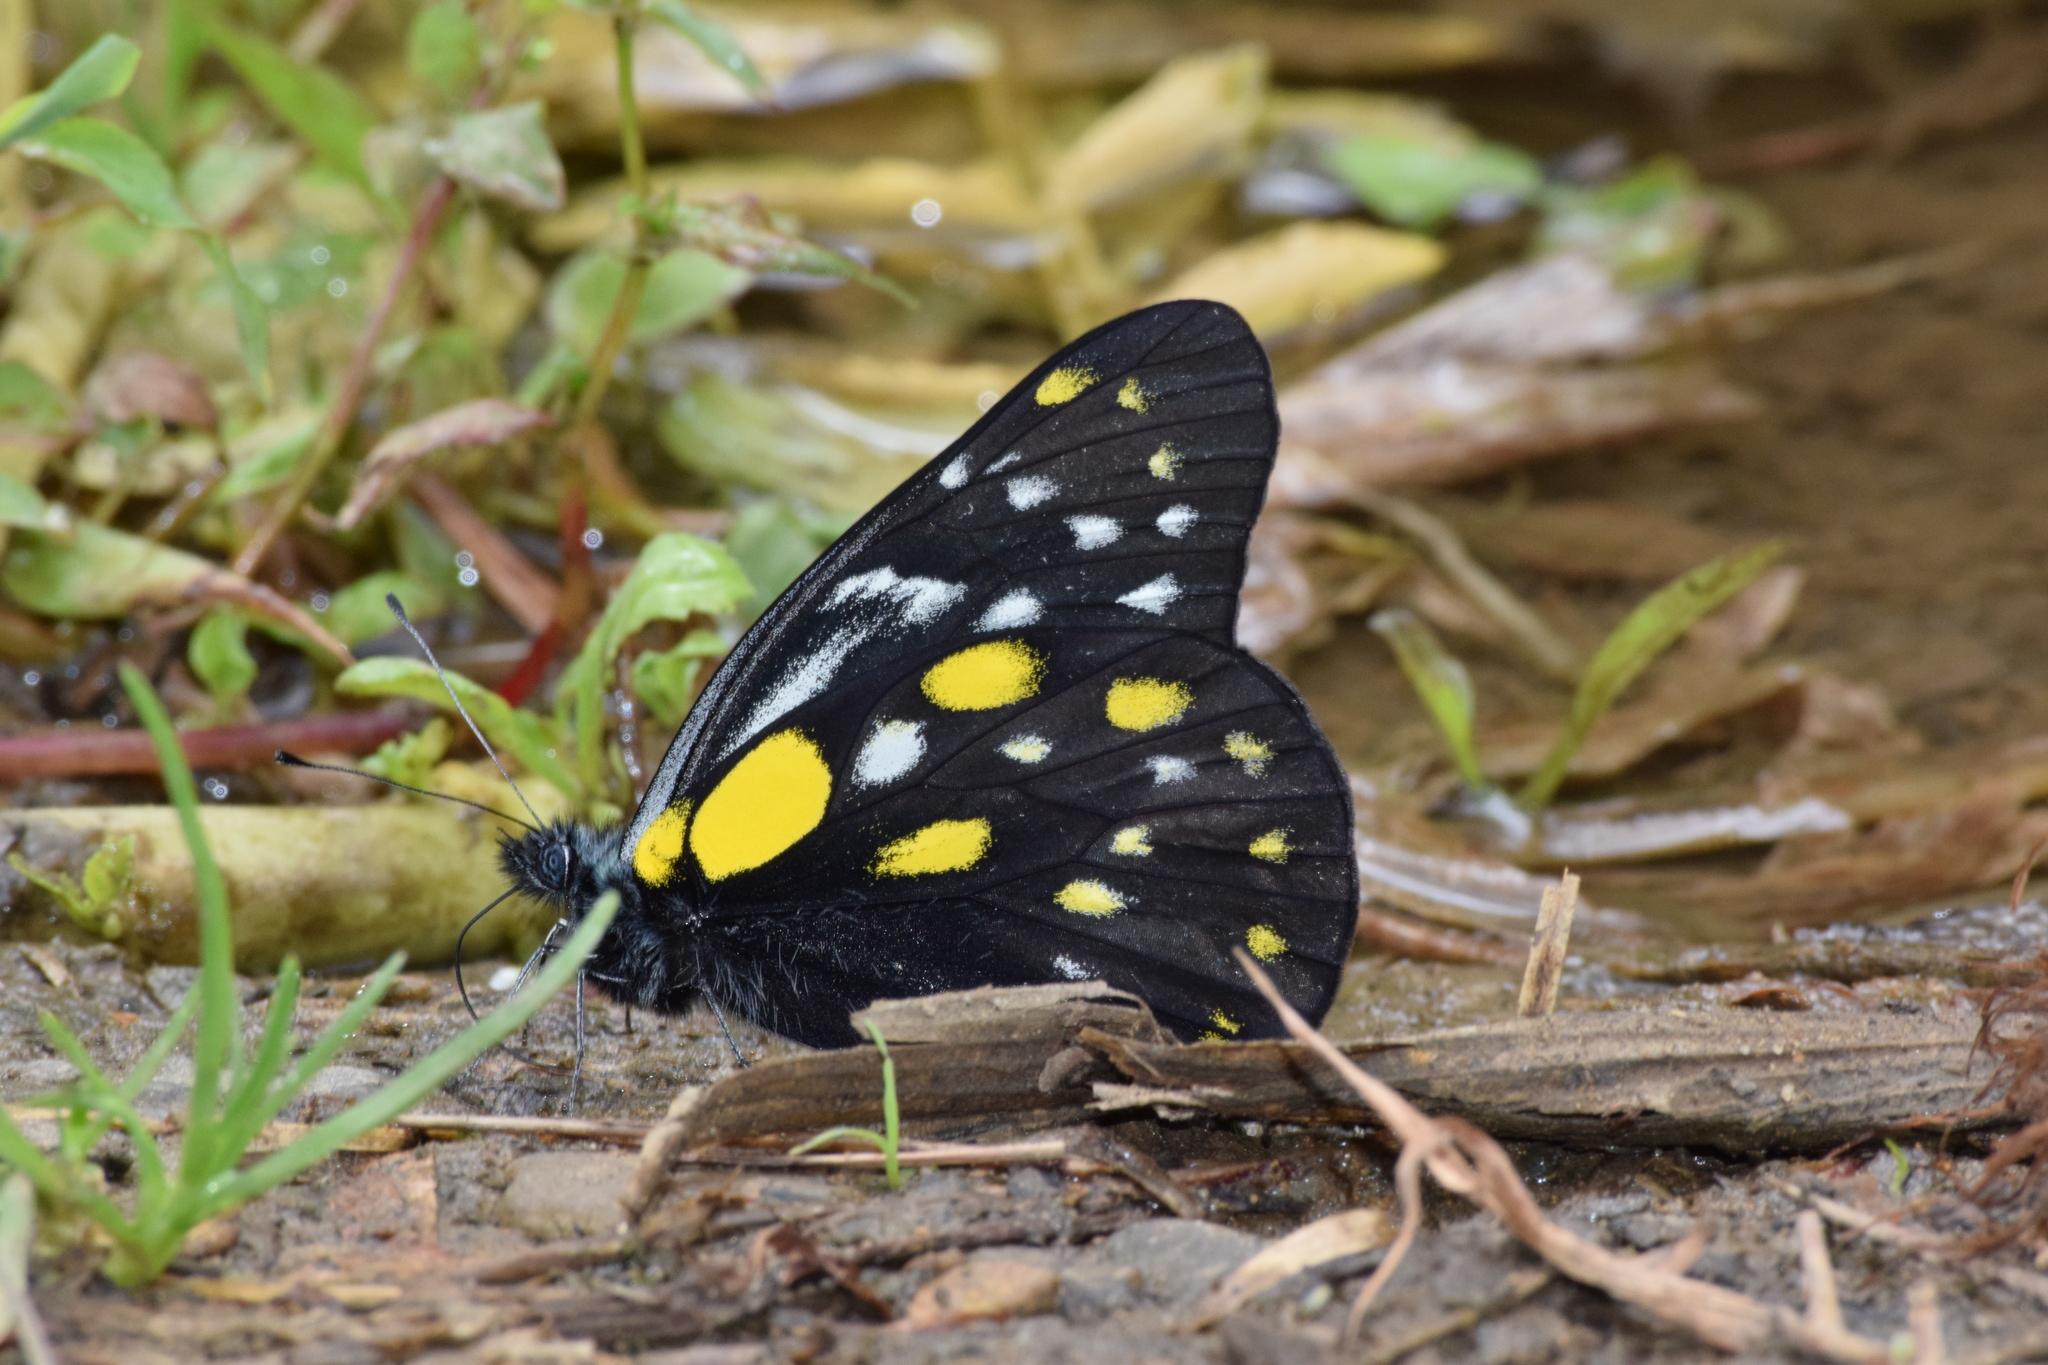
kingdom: Animalia
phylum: Arthropoda
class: Insecta
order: Lepidoptera
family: Pieridae
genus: Delias
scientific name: Delias belladonna
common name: Hill jezebel
